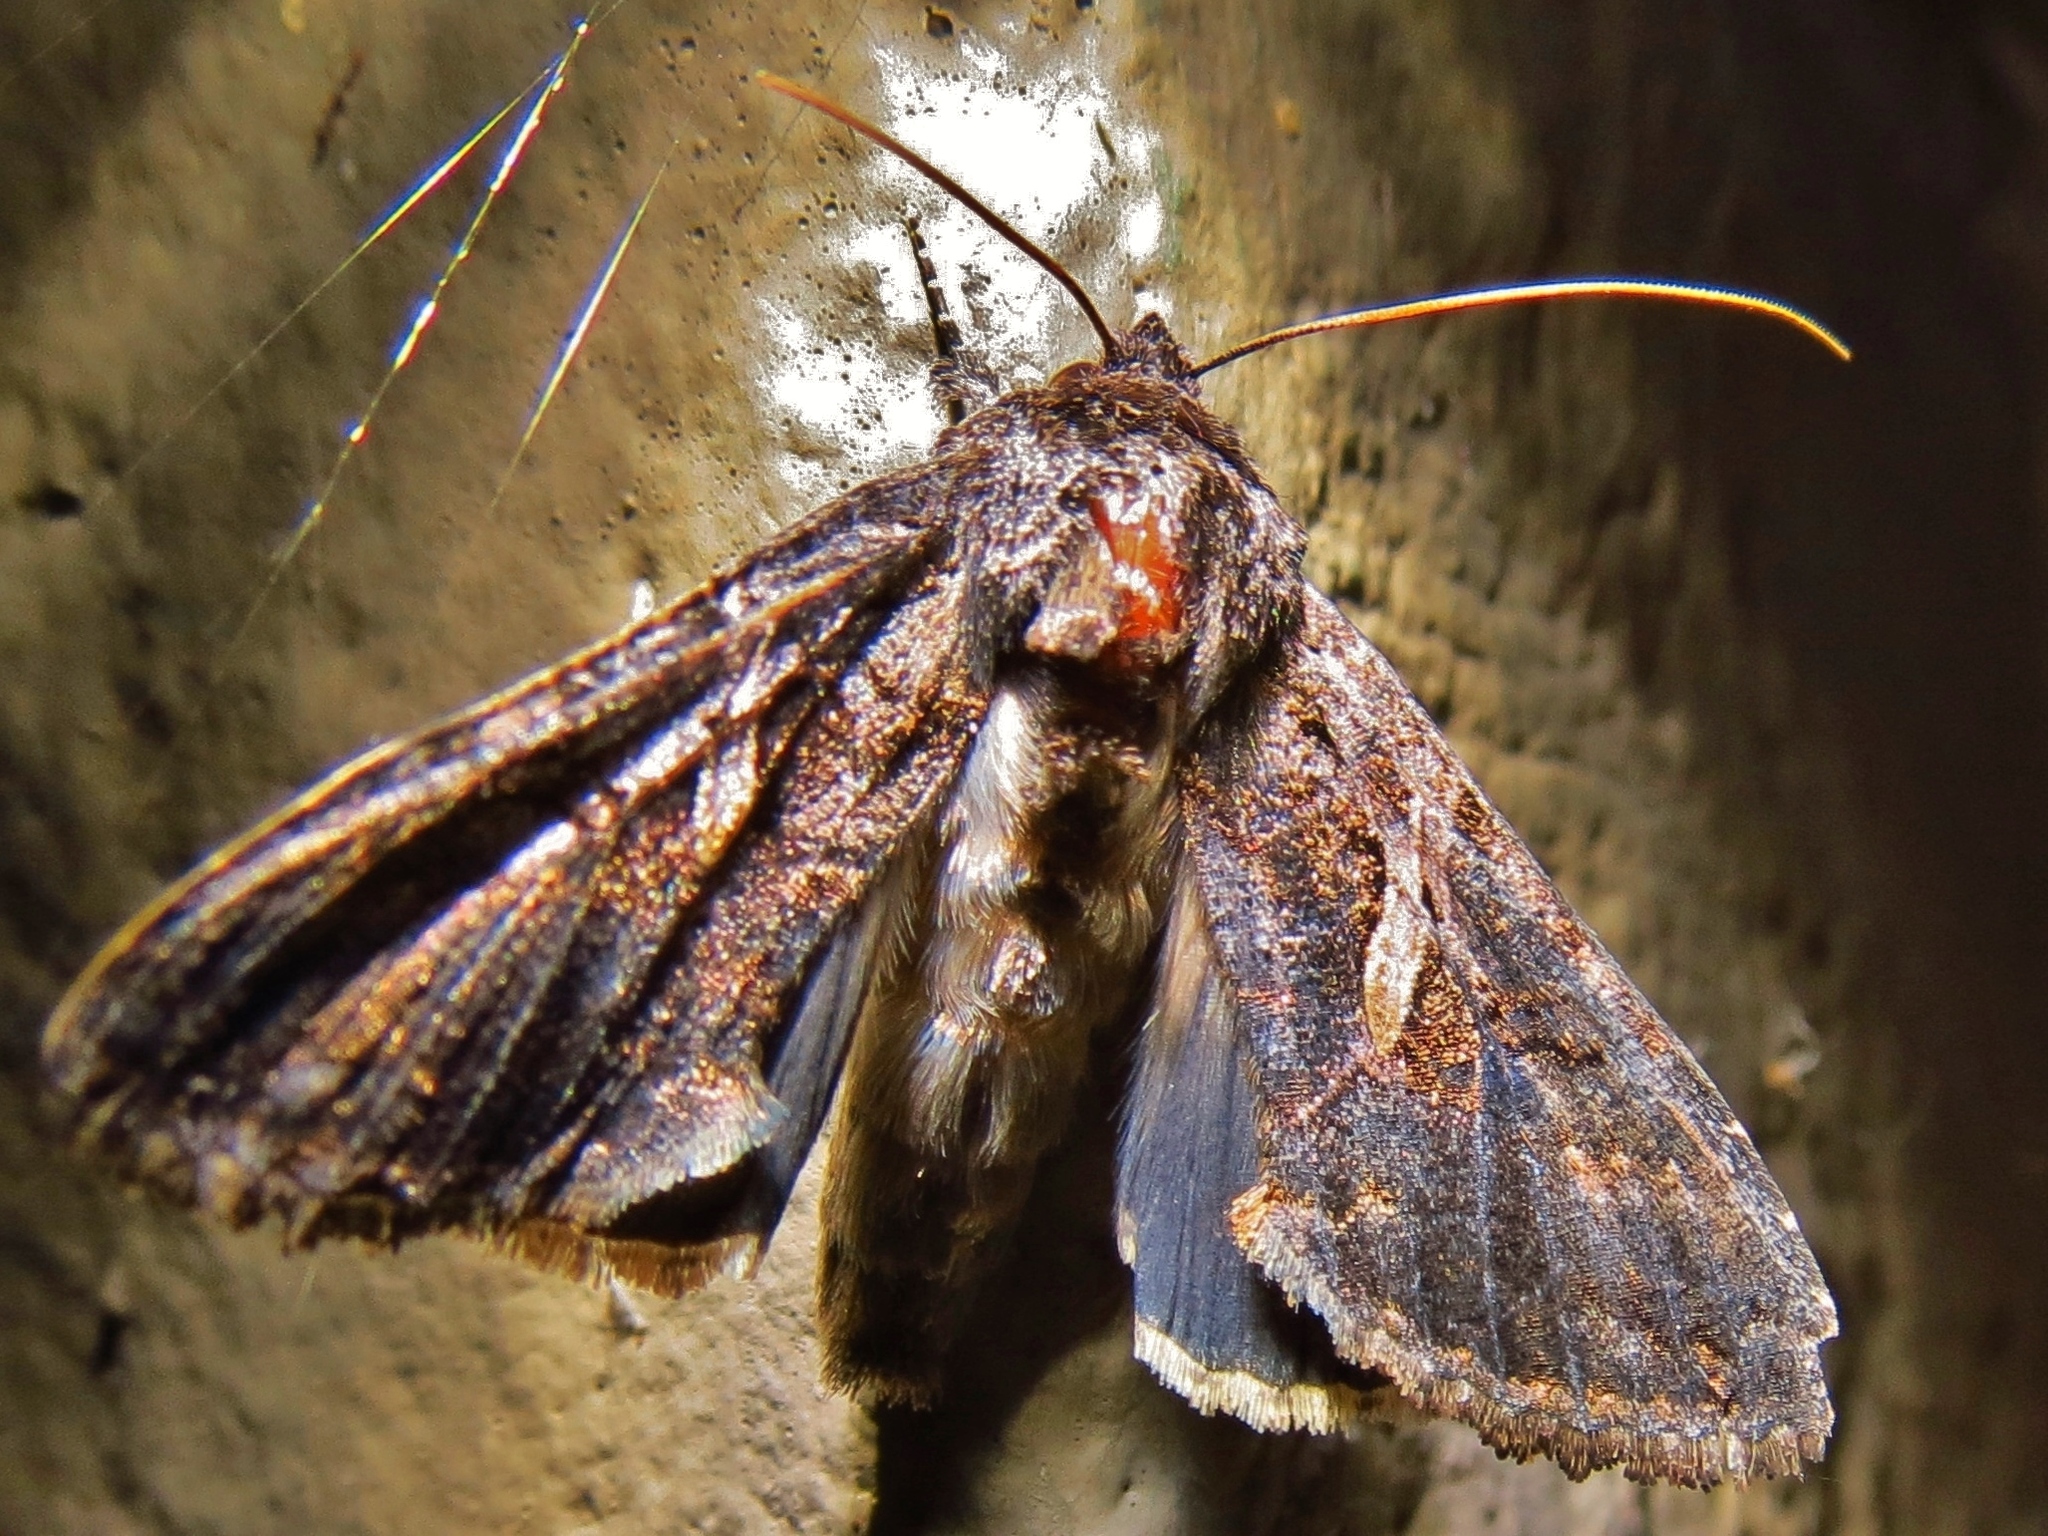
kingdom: Animalia
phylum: Arthropoda
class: Insecta
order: Lepidoptera
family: Noctuidae
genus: Ctenoplusia
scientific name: Ctenoplusia oxygramma
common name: Sharp-stigma looper moth
